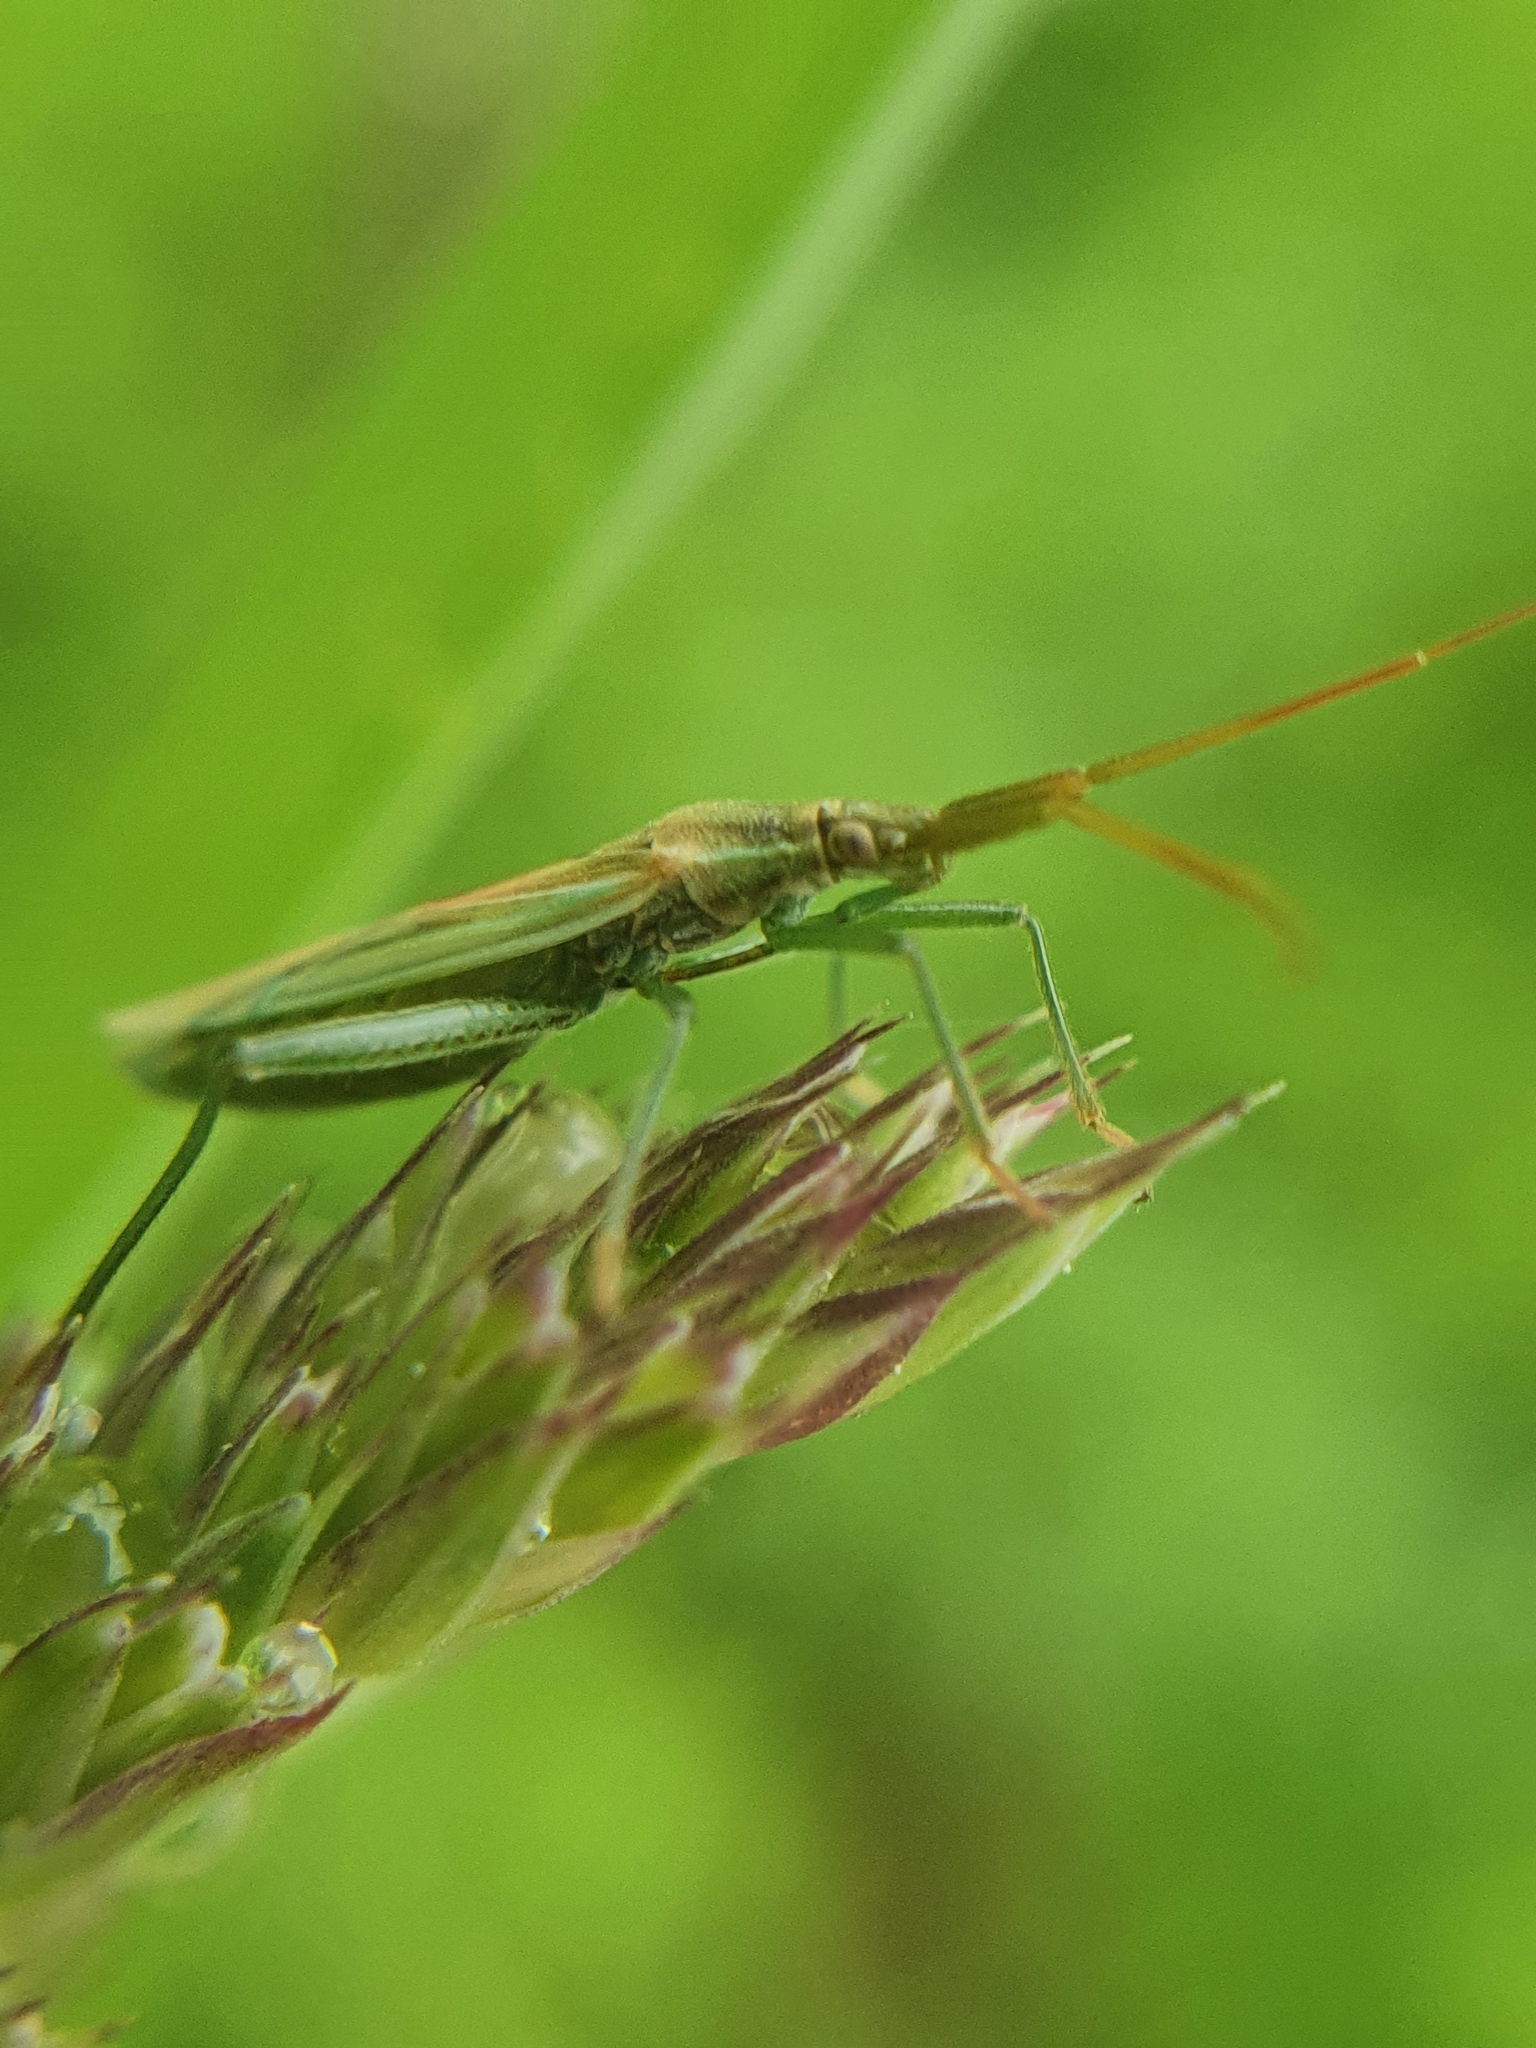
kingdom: Animalia
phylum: Arthropoda
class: Insecta
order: Hemiptera
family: Miridae
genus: Stenodema
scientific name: Stenodema laevigata
